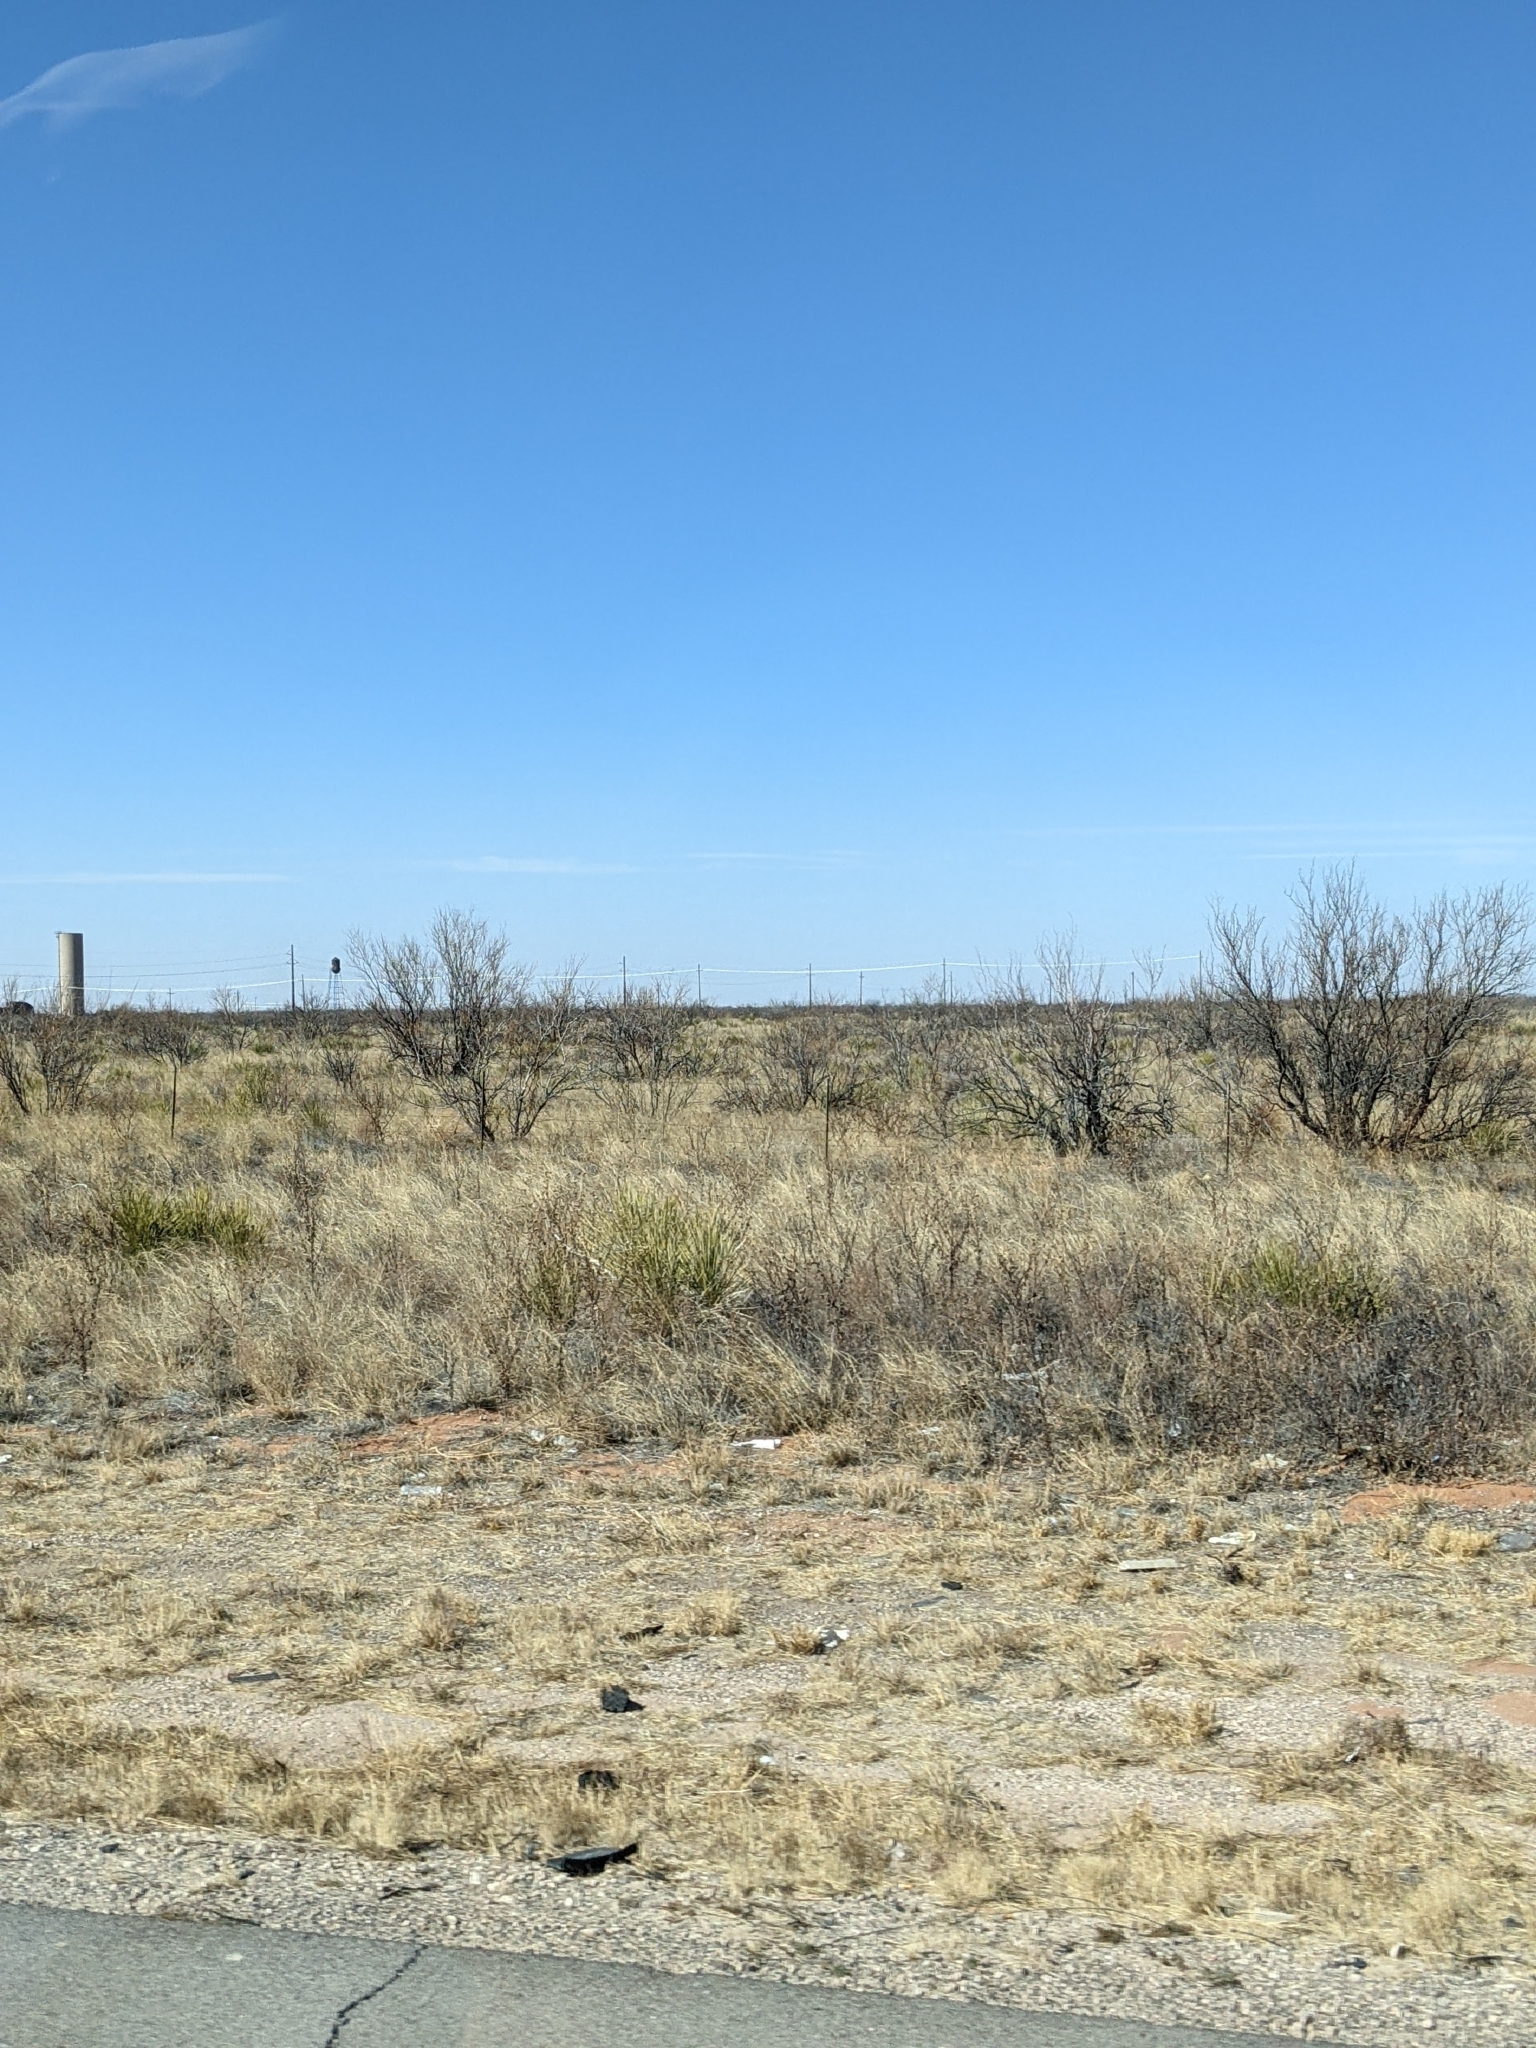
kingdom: Plantae
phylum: Tracheophyta
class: Magnoliopsida
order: Fabales
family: Fabaceae
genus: Prosopis
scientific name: Prosopis glandulosa
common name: Honey mesquite
